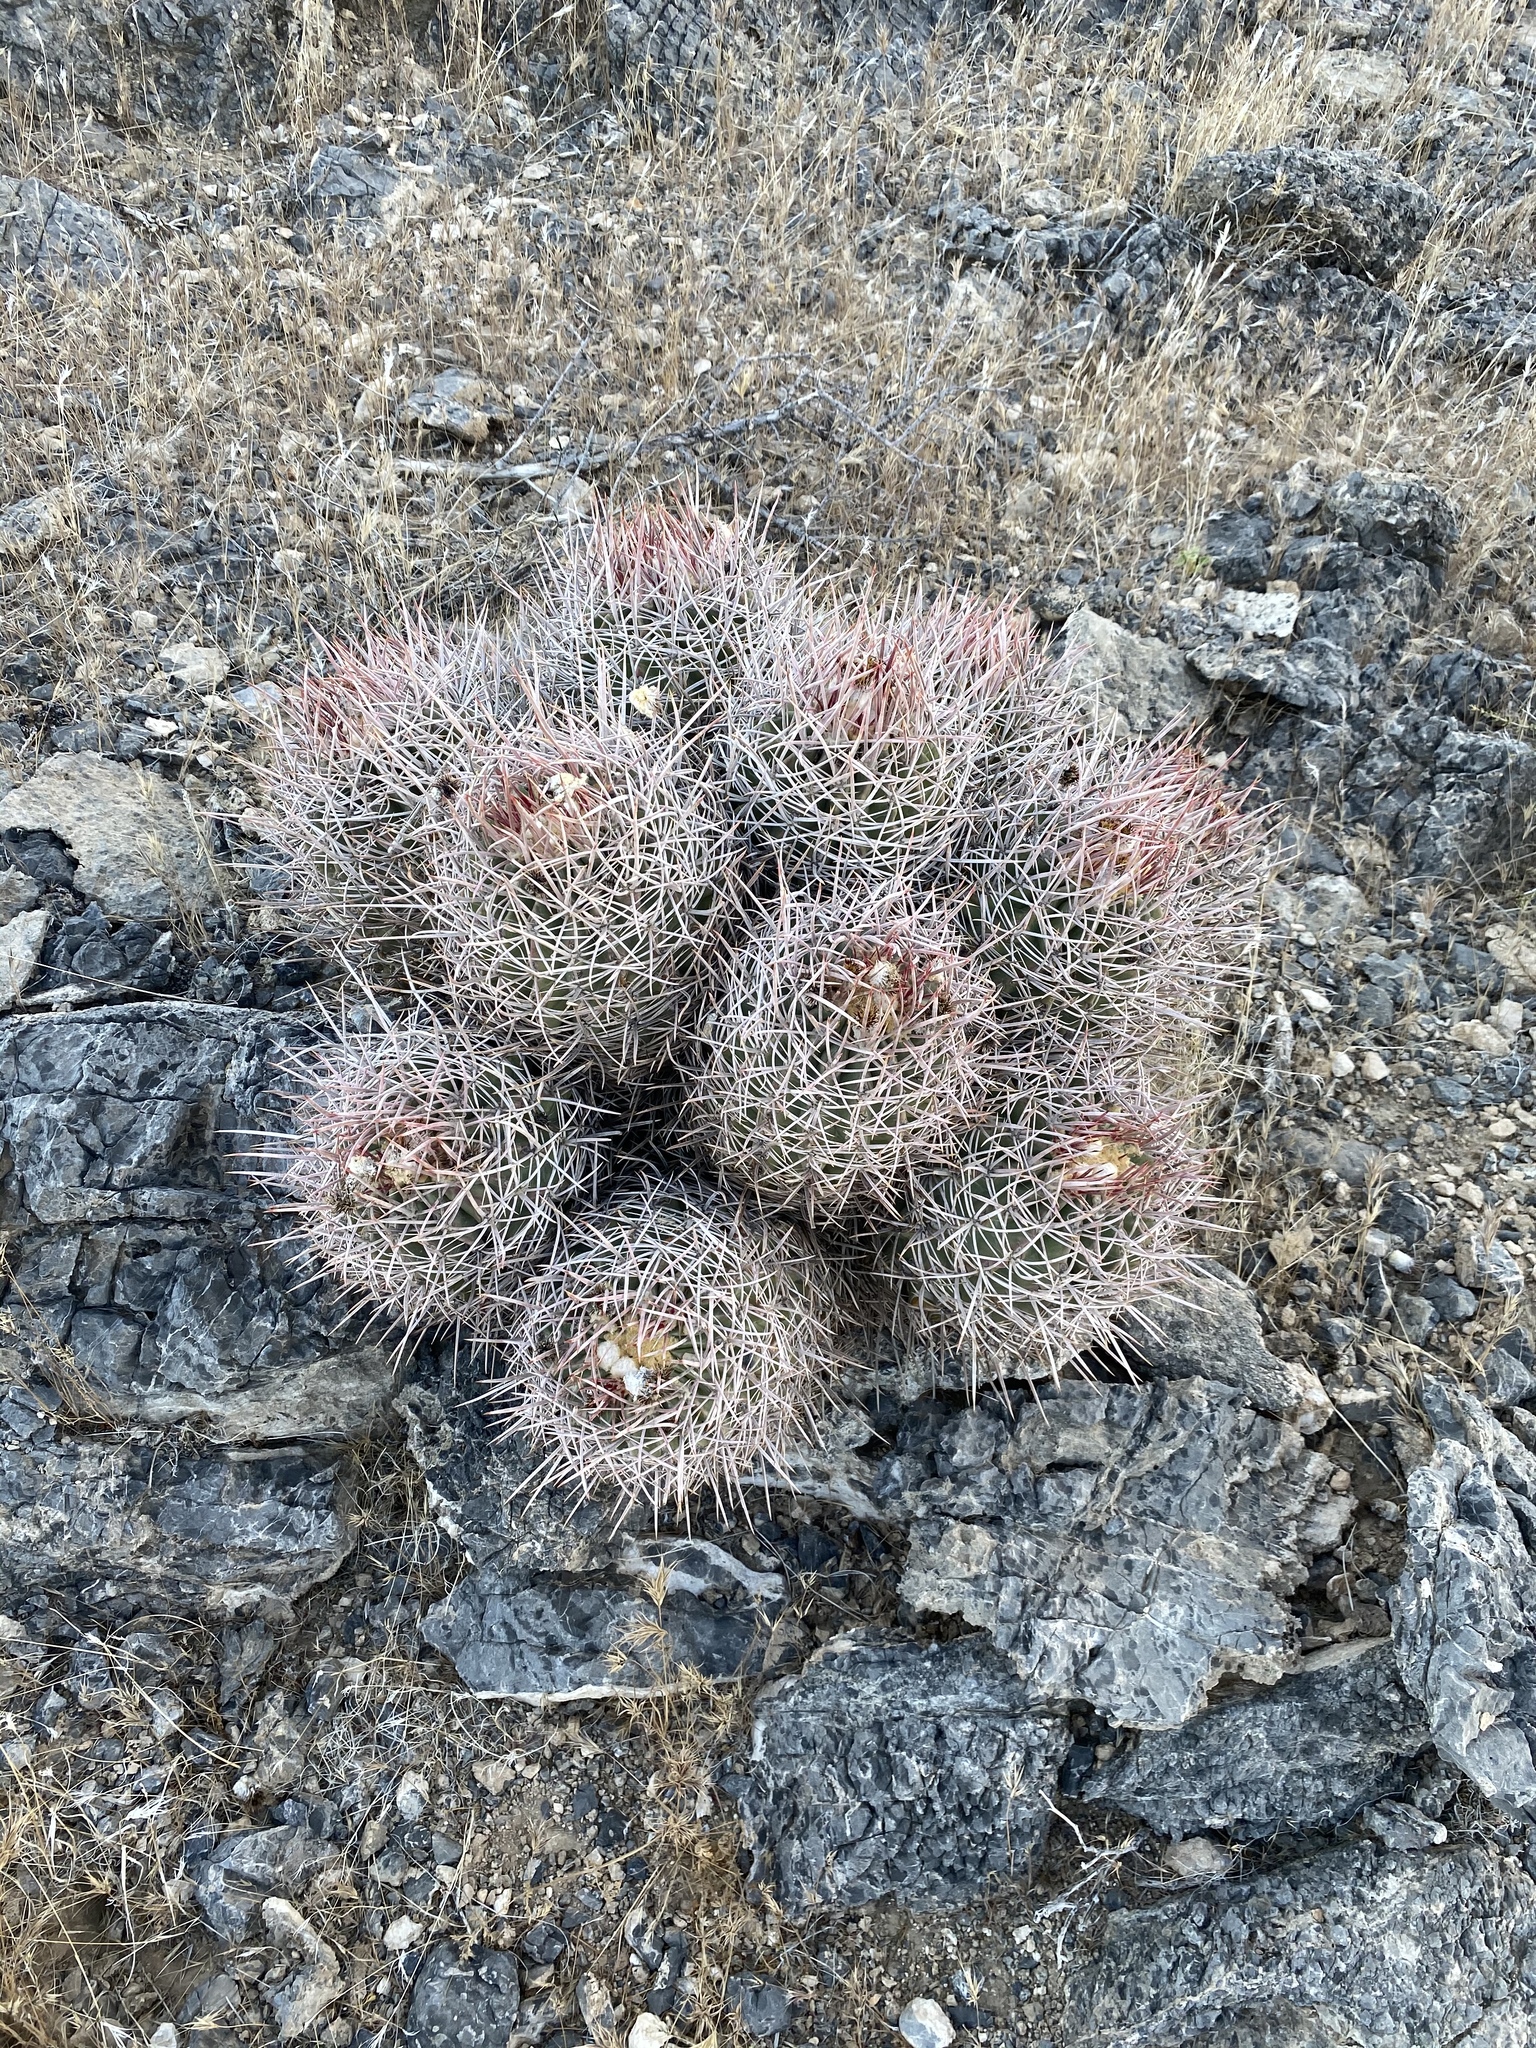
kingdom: Plantae
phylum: Tracheophyta
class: Magnoliopsida
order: Caryophyllales
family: Cactaceae
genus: Echinocactus
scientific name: Echinocactus polycephalus
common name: Cottontop cactus
